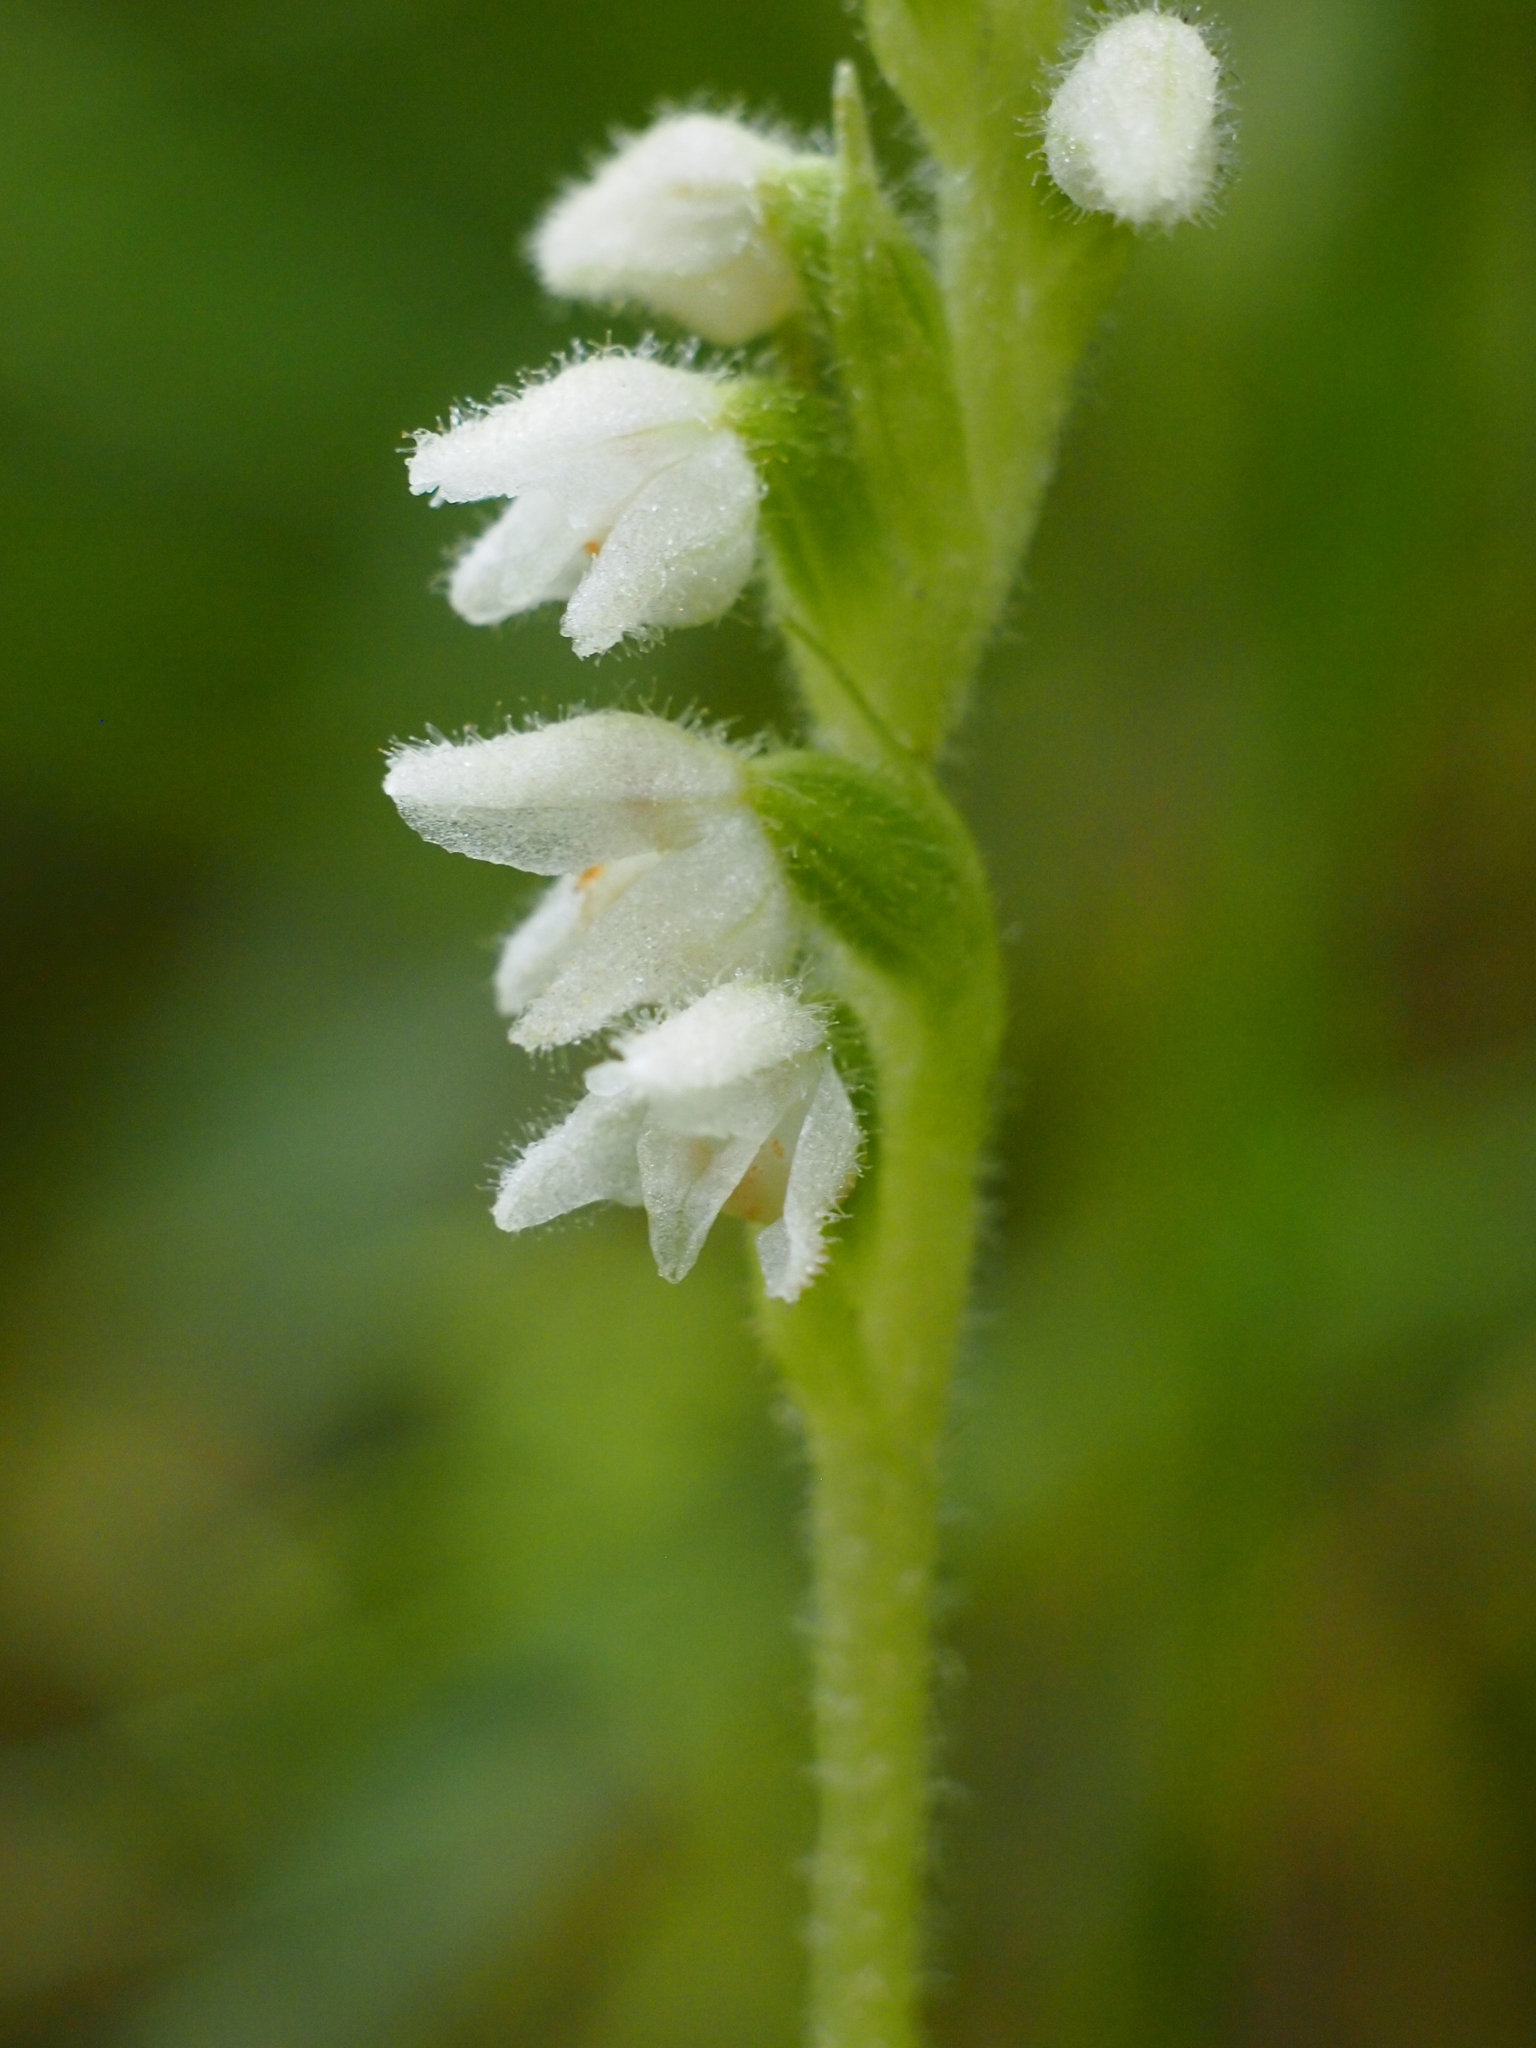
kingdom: Plantae
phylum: Tracheophyta
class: Liliopsida
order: Asparagales
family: Orchidaceae
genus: Goodyera
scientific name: Goodyera repens
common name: Creeping lady's-tresses
